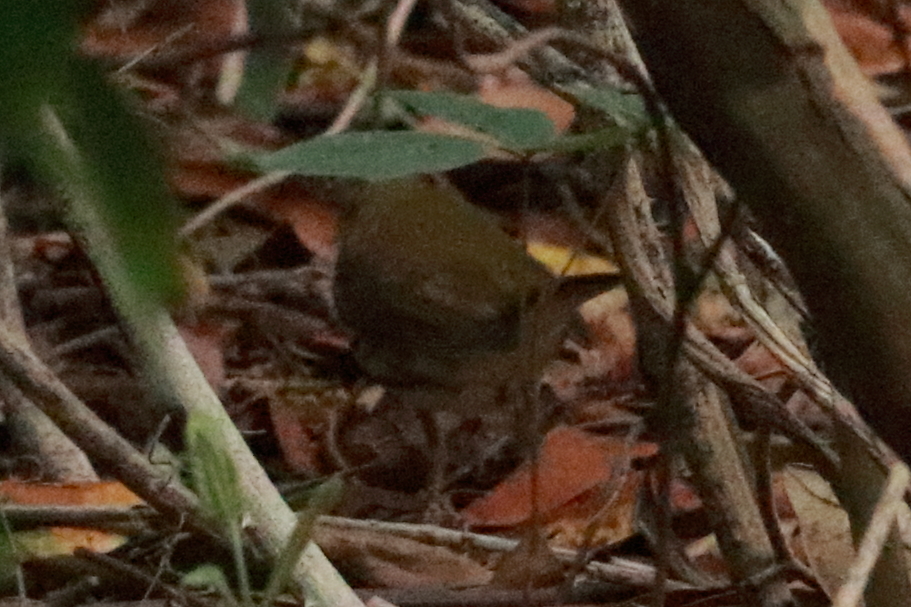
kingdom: Animalia
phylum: Chordata
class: Aves
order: Passeriformes
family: Parulidae
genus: Seiurus
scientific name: Seiurus aurocapilla
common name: Ovenbird
